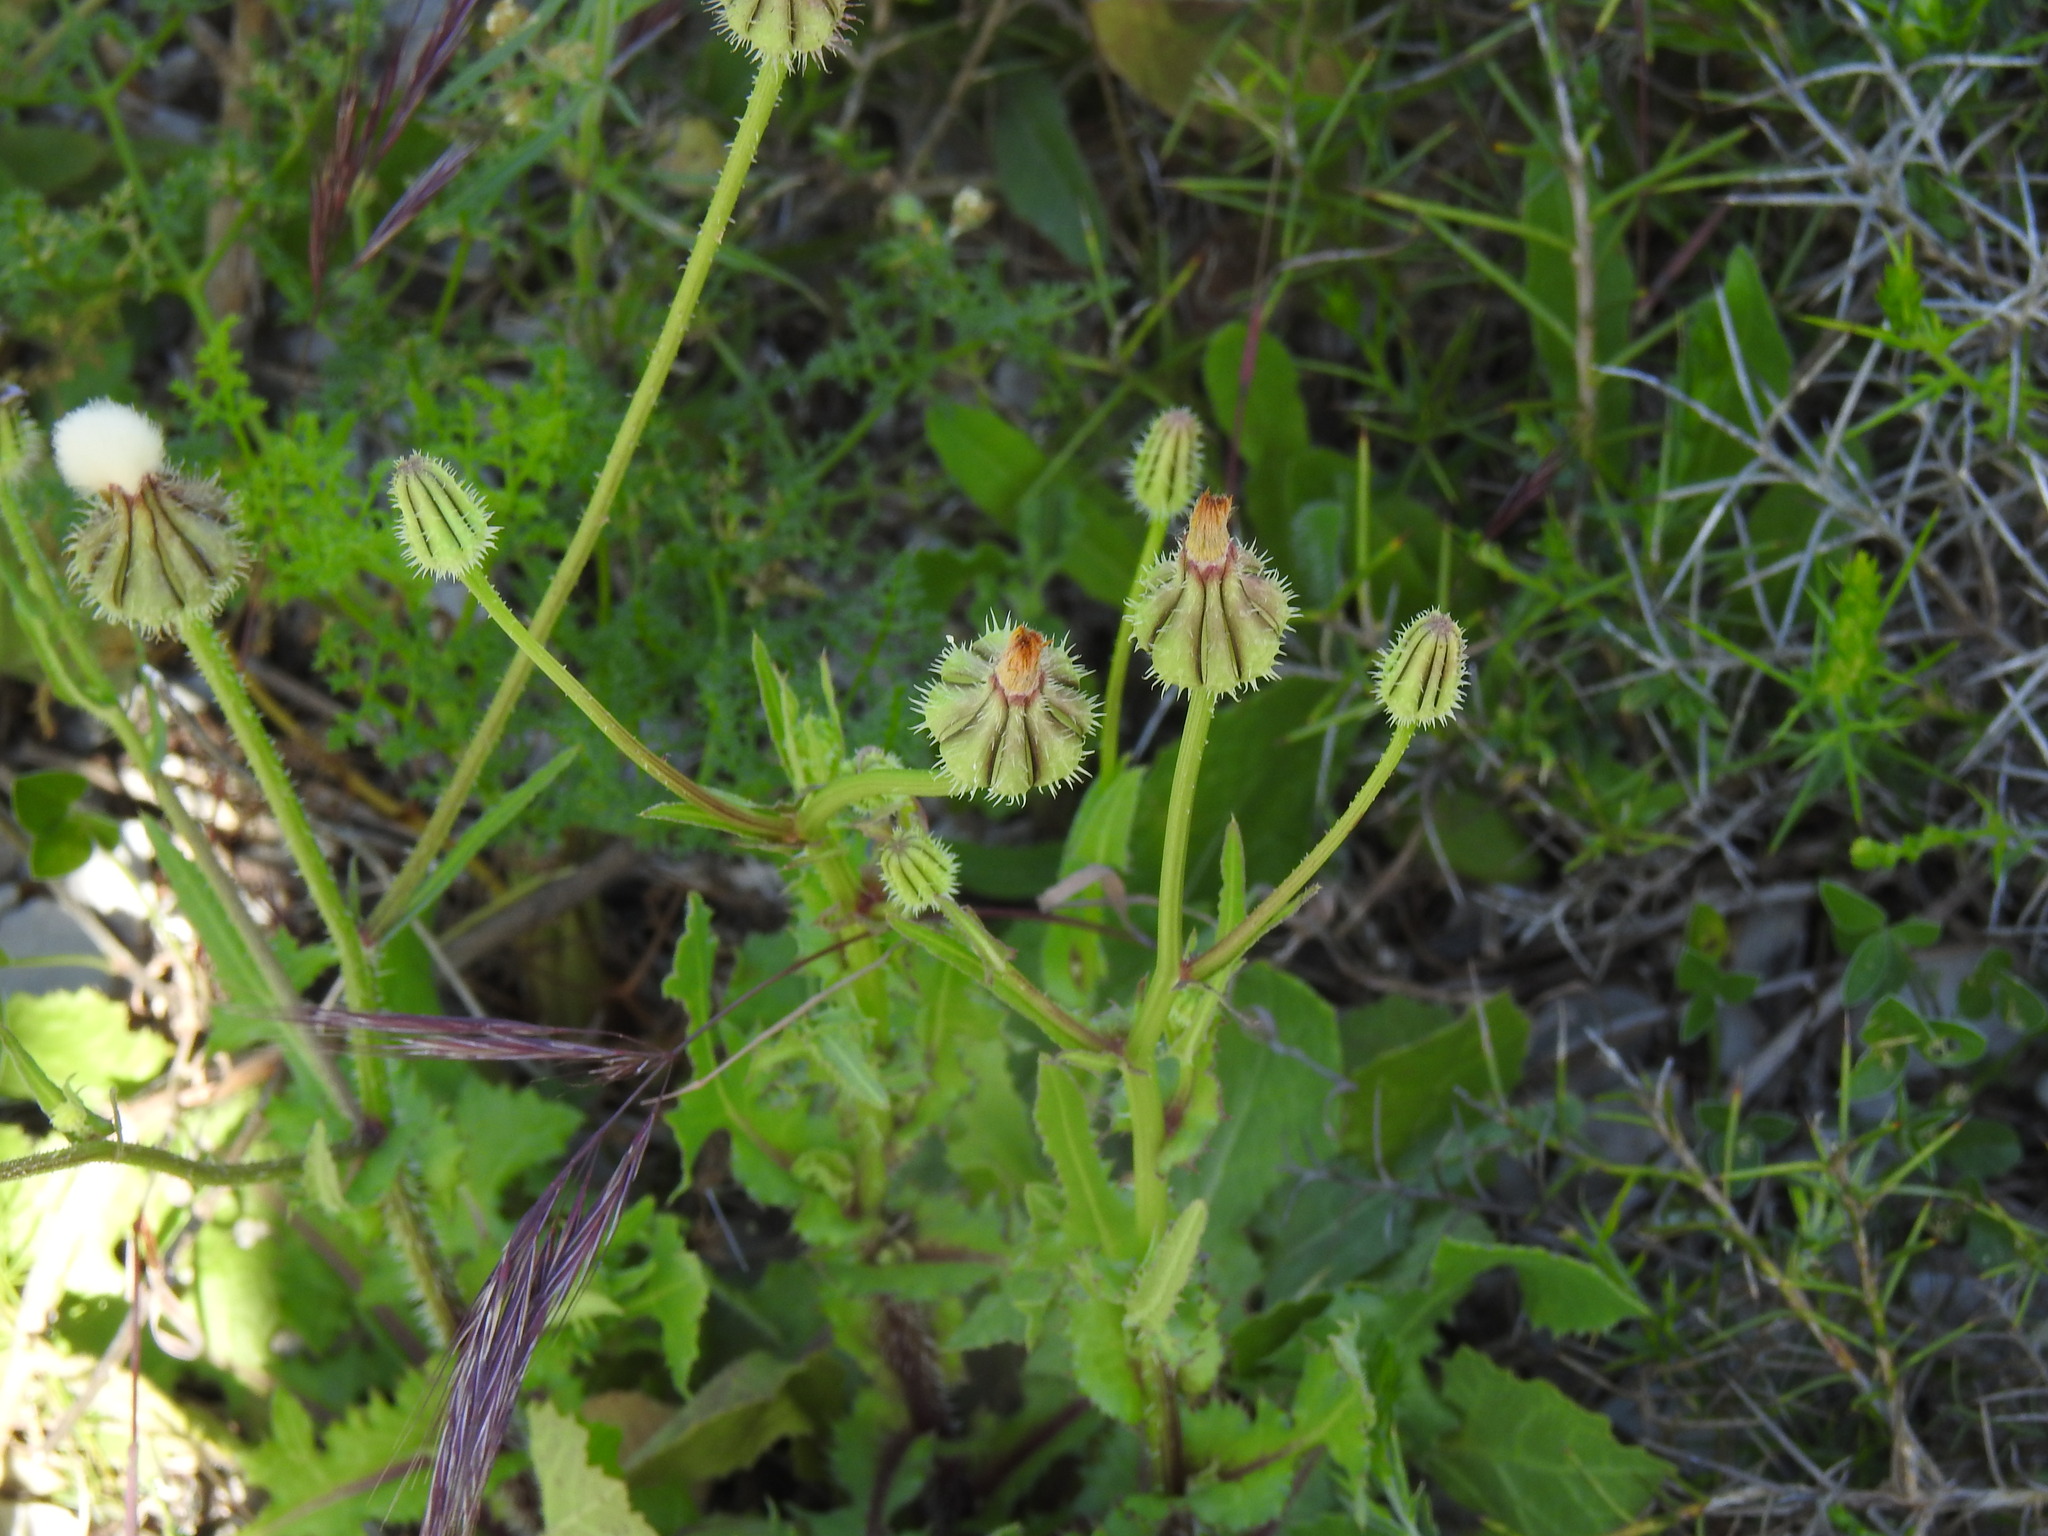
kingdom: Plantae
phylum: Tracheophyta
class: Magnoliopsida
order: Asterales
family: Asteraceae
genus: Urospermum
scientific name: Urospermum picroides
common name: False hawkbit
